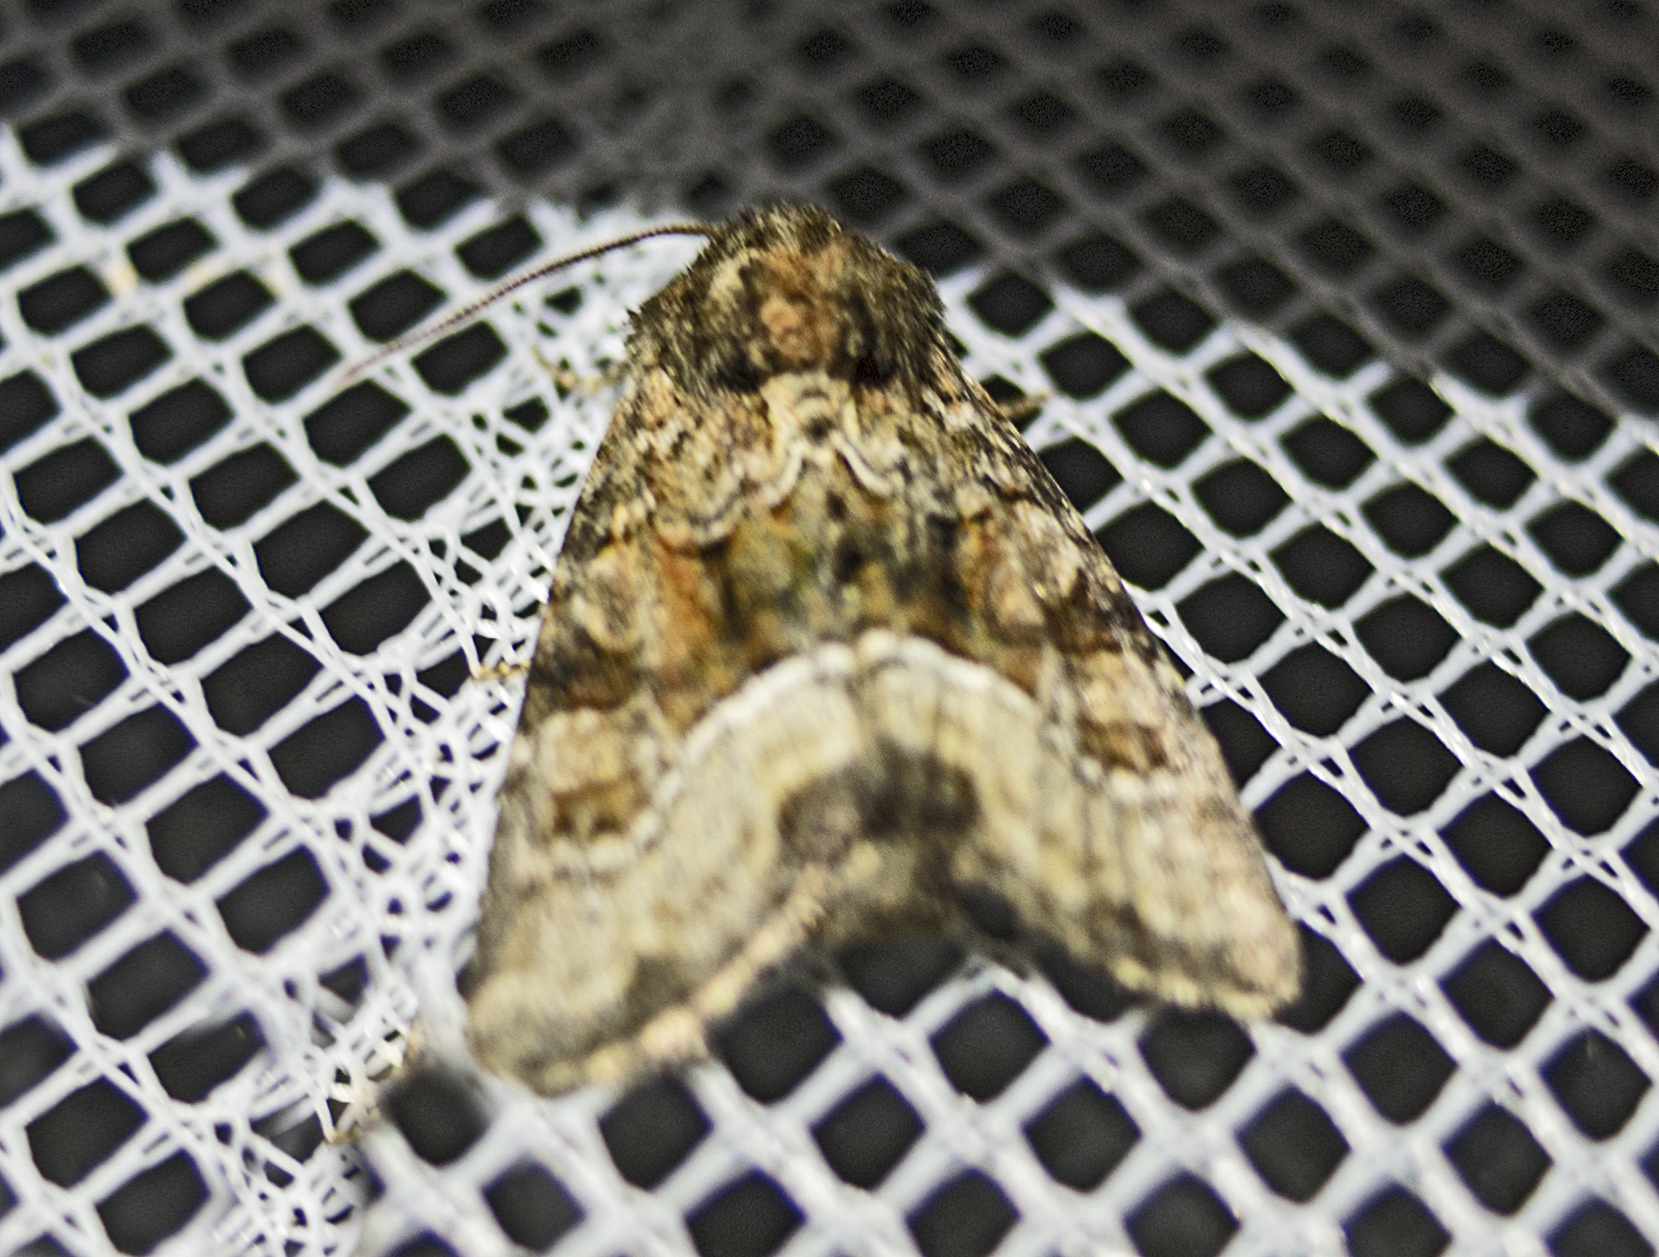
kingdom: Animalia
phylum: Arthropoda
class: Insecta
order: Lepidoptera
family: Noctuidae
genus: Oligia
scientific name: Oligia strigilis
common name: Marbled minor
